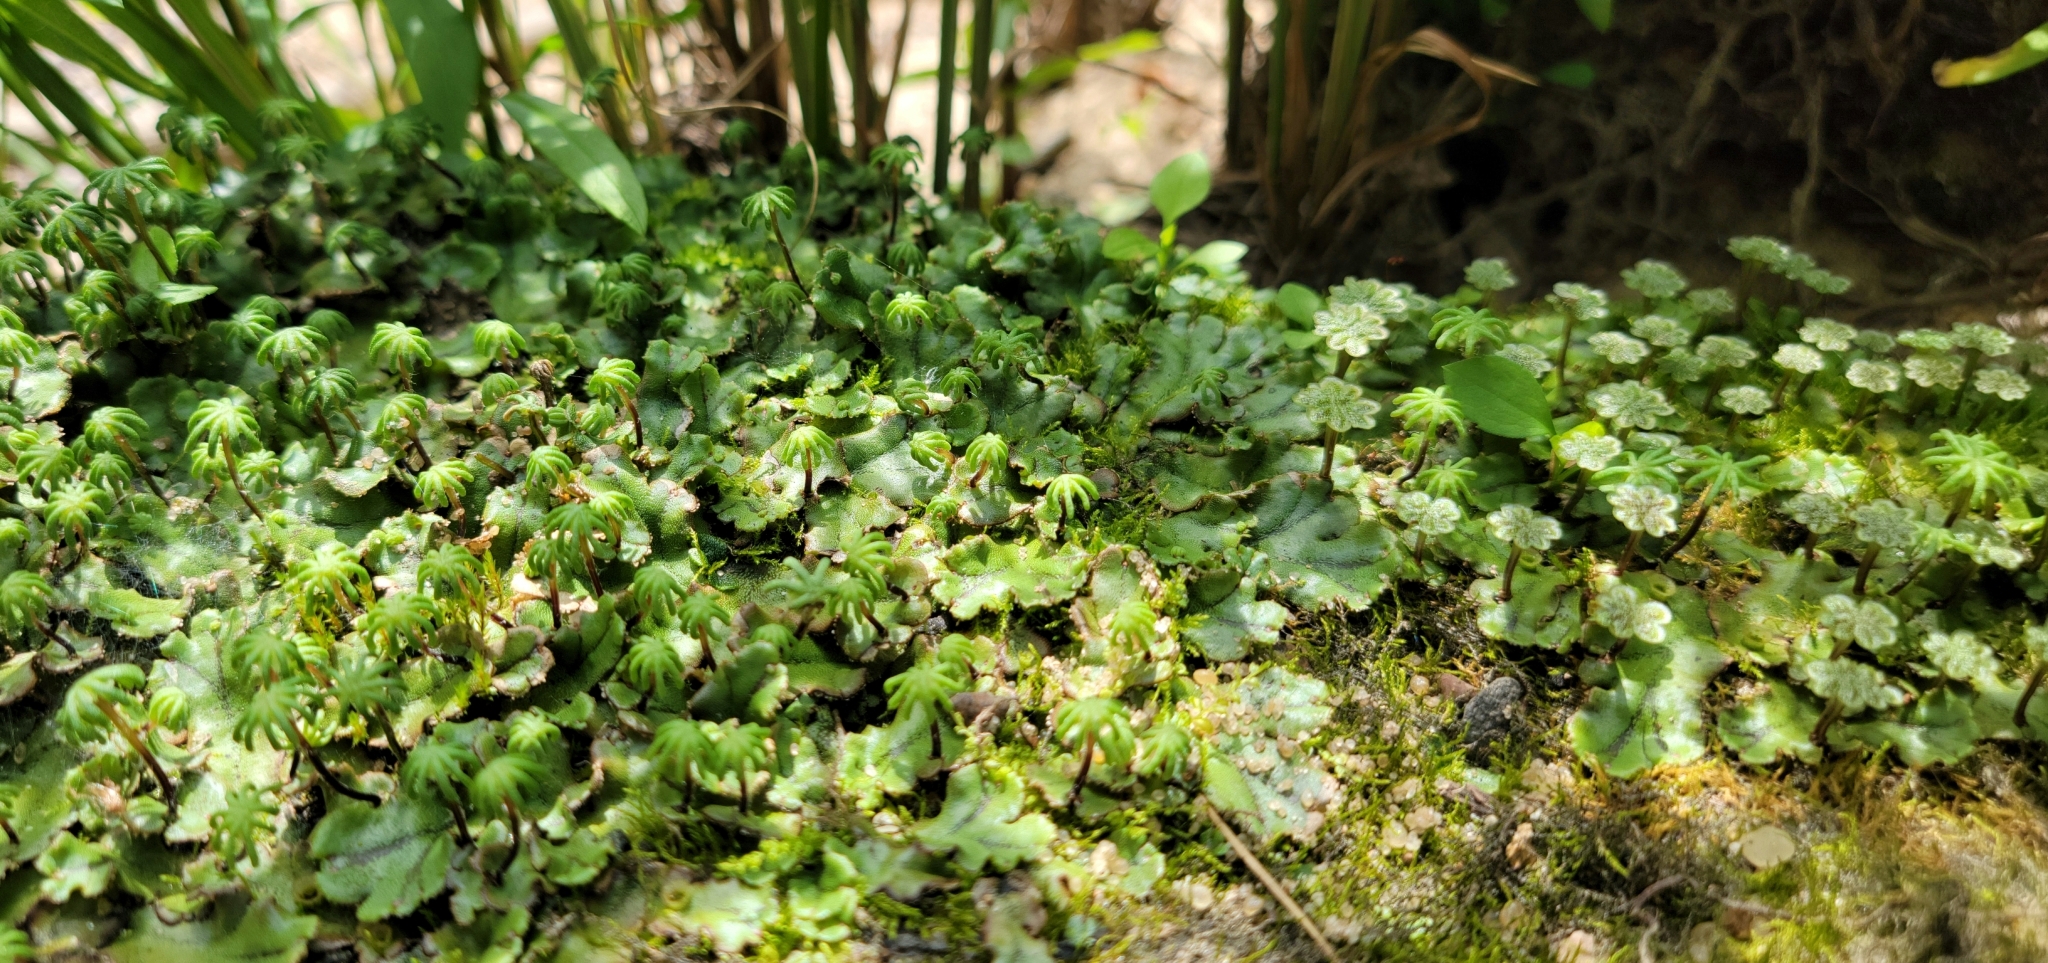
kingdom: Plantae
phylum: Marchantiophyta
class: Marchantiopsida
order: Marchantiales
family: Marchantiaceae
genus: Marchantia
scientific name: Marchantia polymorpha
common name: Common liverwort
